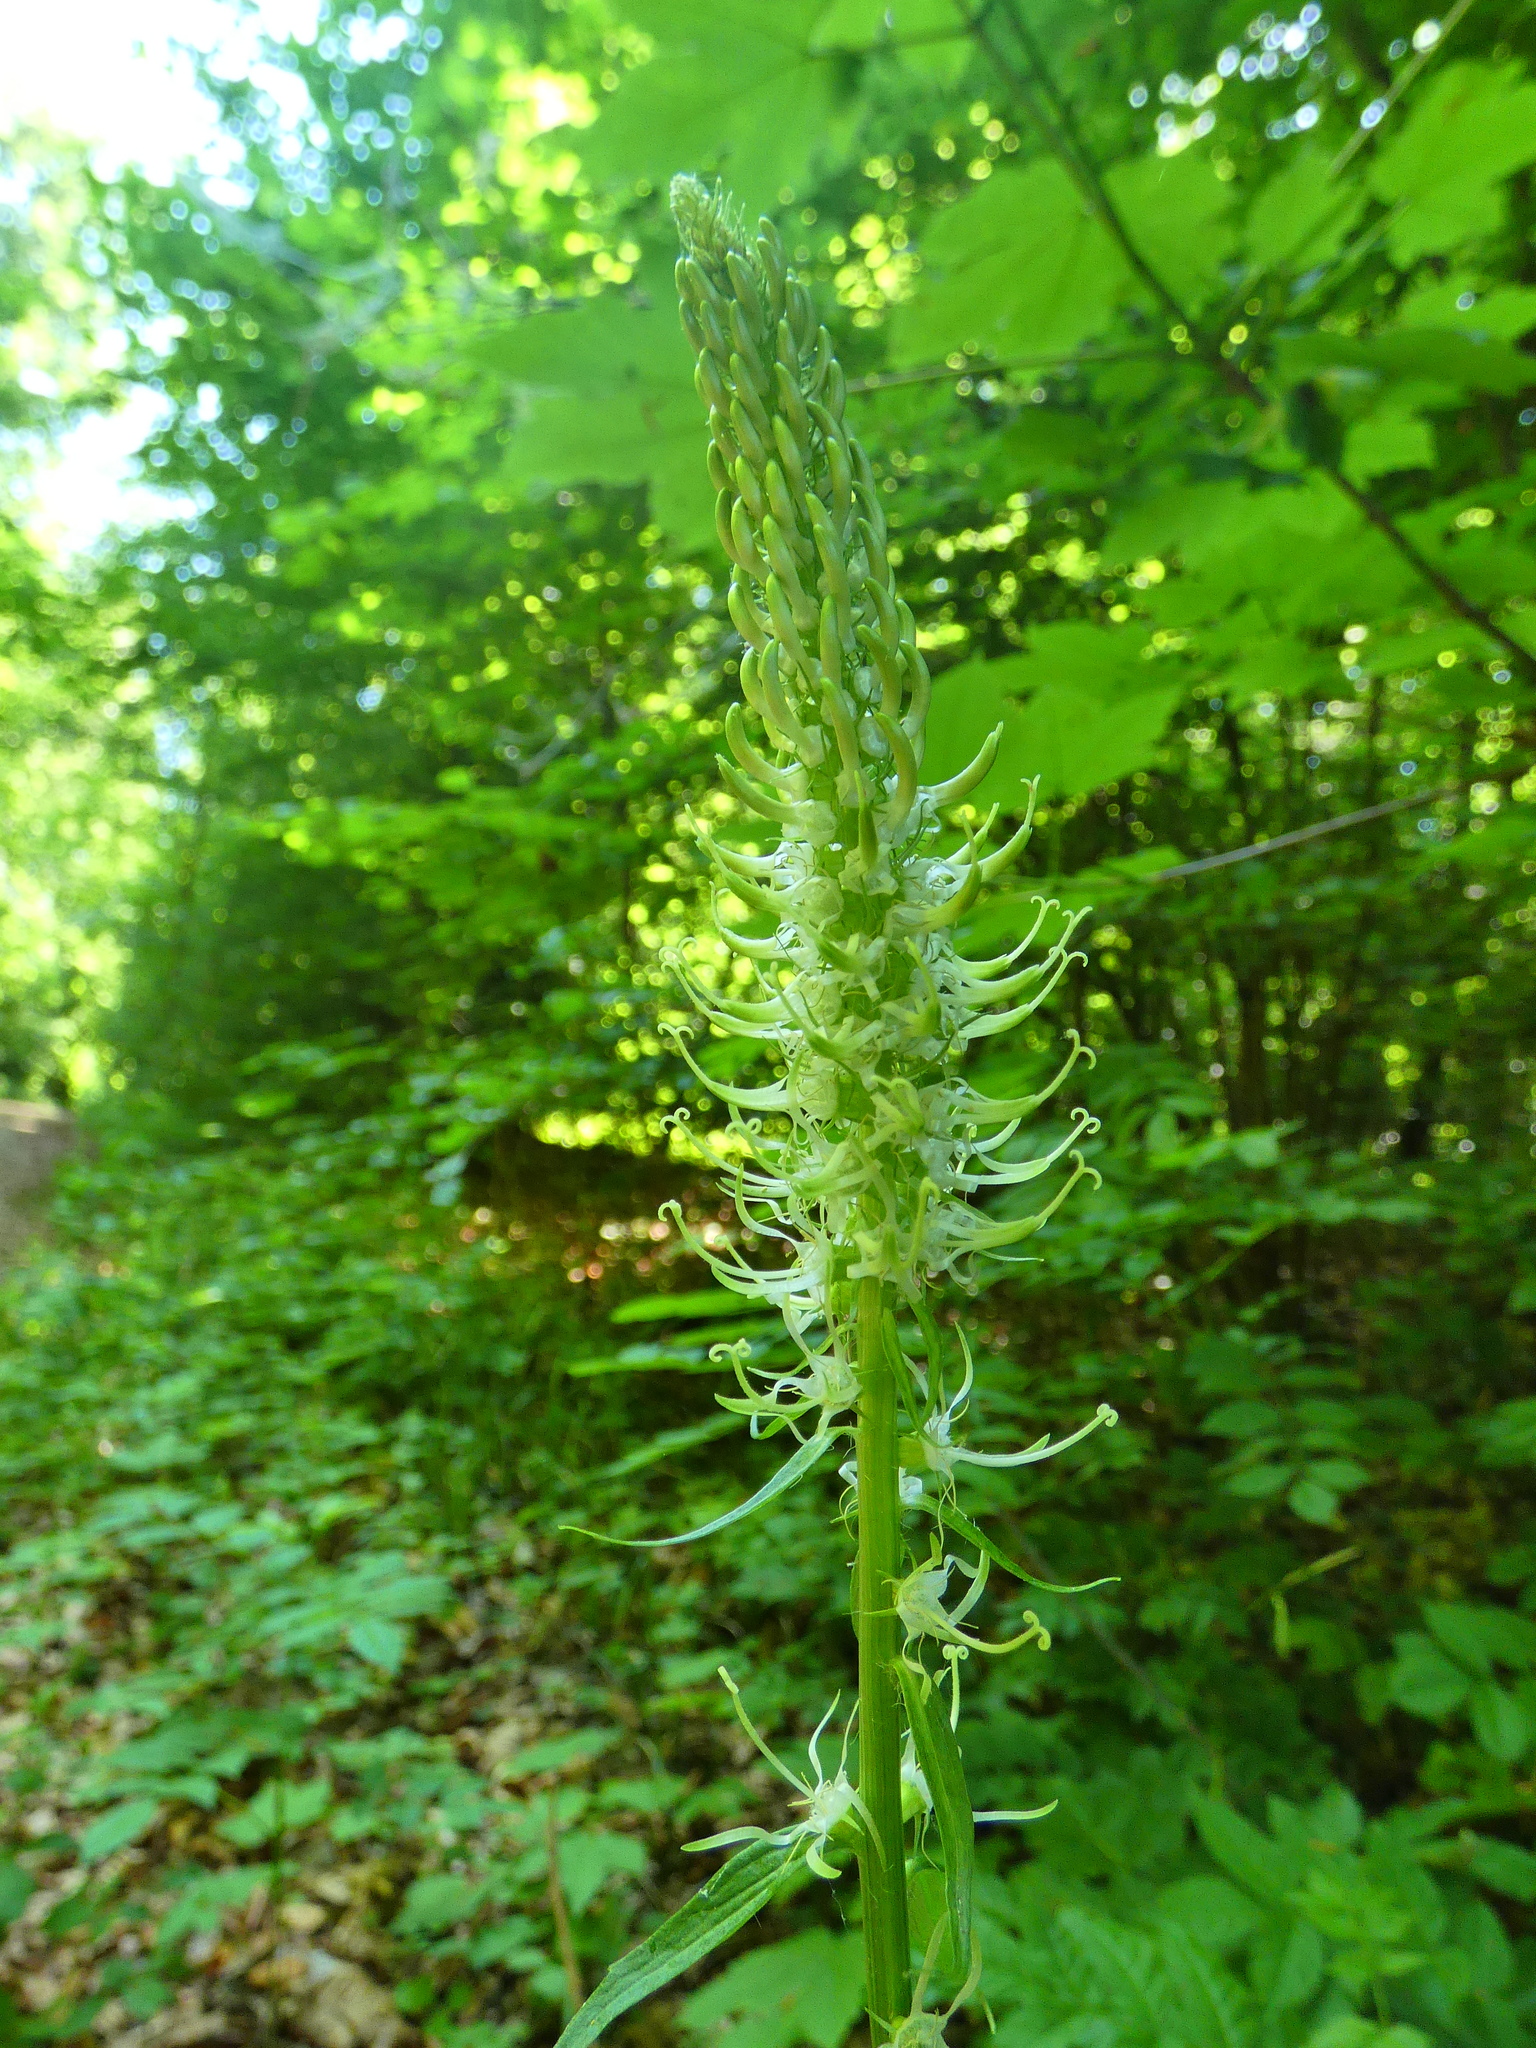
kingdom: Plantae
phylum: Tracheophyta
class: Magnoliopsida
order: Asterales
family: Campanulaceae
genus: Phyteuma
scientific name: Phyteuma spicatum
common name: Spiked rampion
